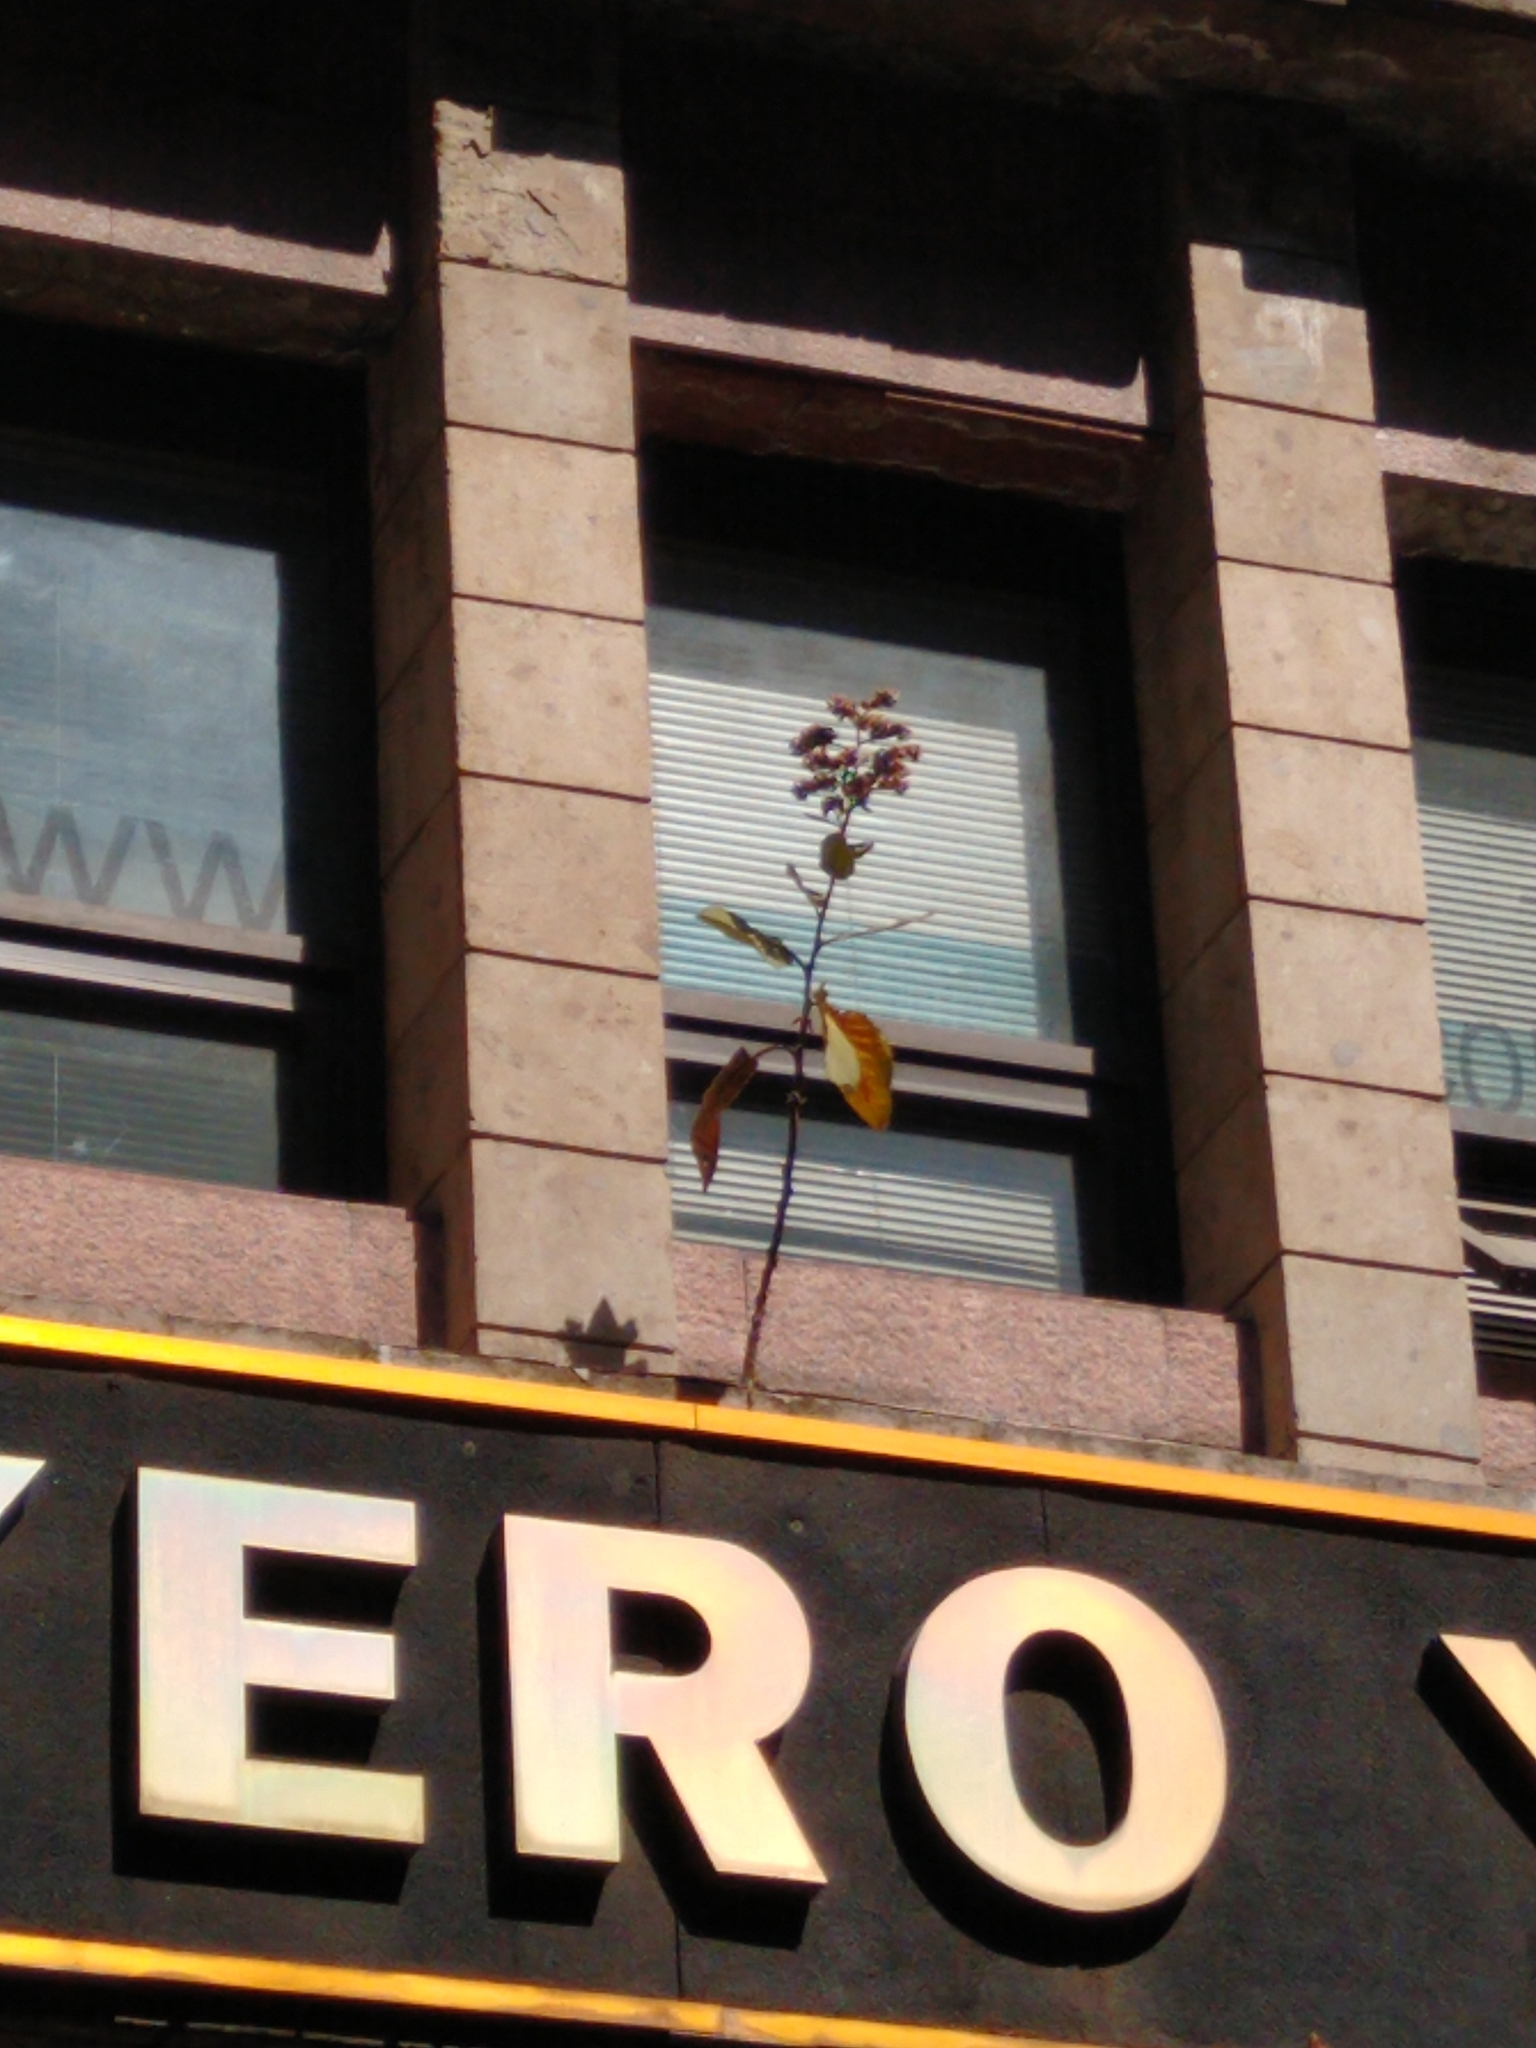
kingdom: Plantae
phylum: Tracheophyta
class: Magnoliopsida
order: Boraginales
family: Namaceae
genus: Wigandia
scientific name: Wigandia urens
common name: Caracus wigandia
